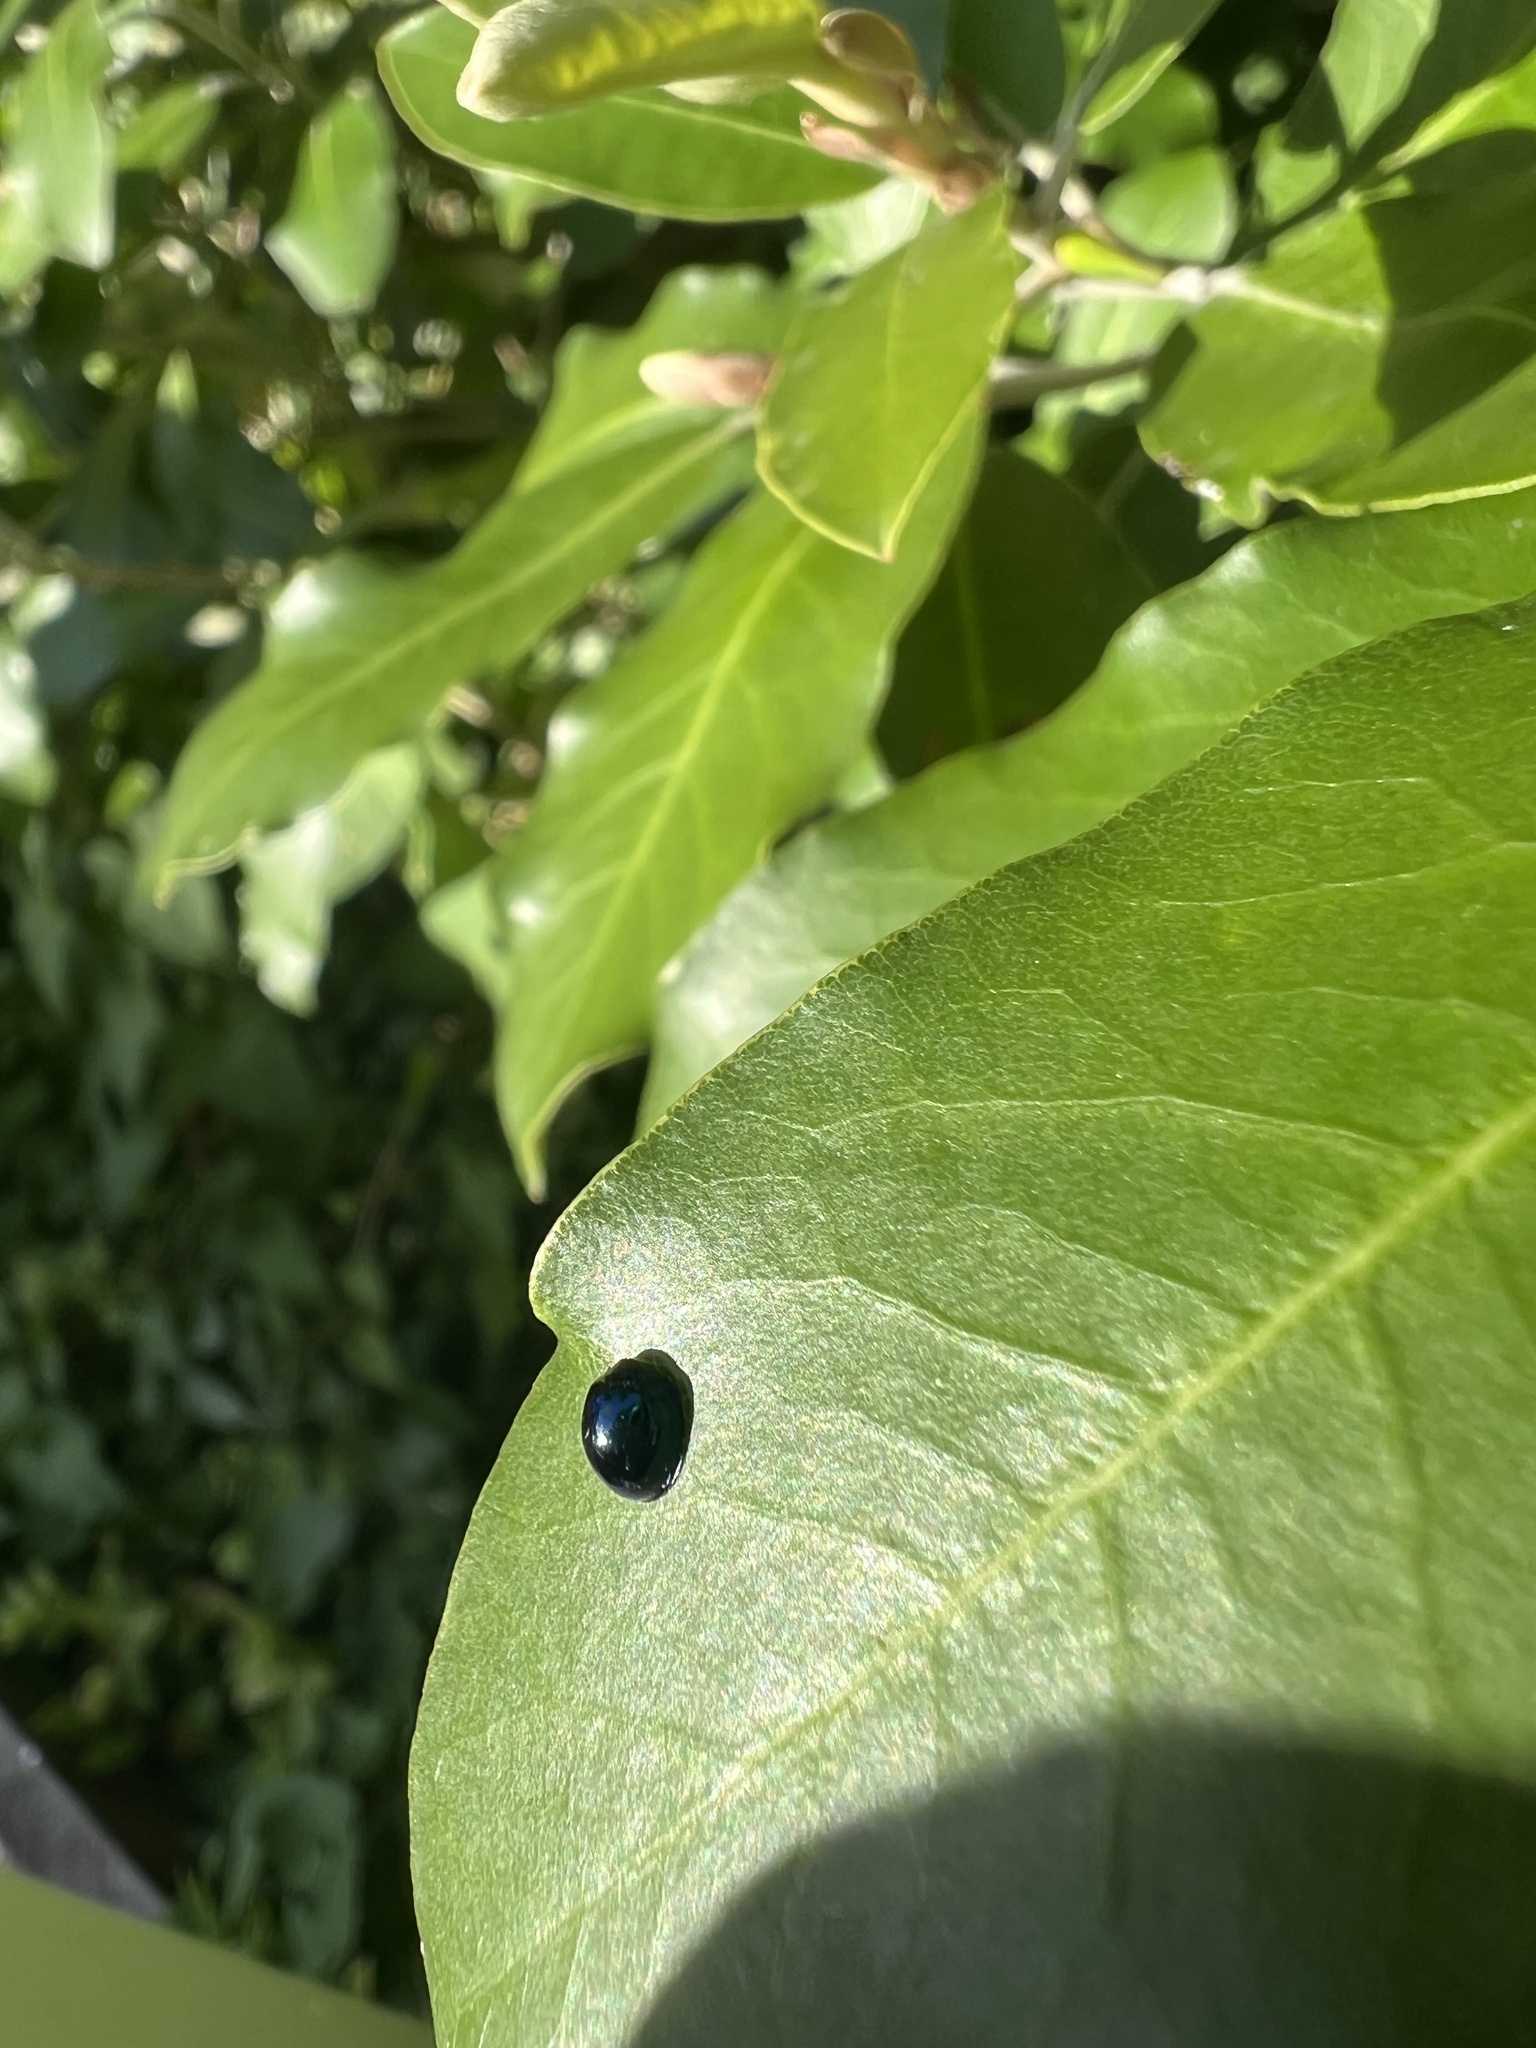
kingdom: Animalia
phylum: Arthropoda
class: Insecta
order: Coleoptera
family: Coccinellidae
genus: Halmus
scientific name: Halmus chalybeus
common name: Steel blue ladybird beetle
